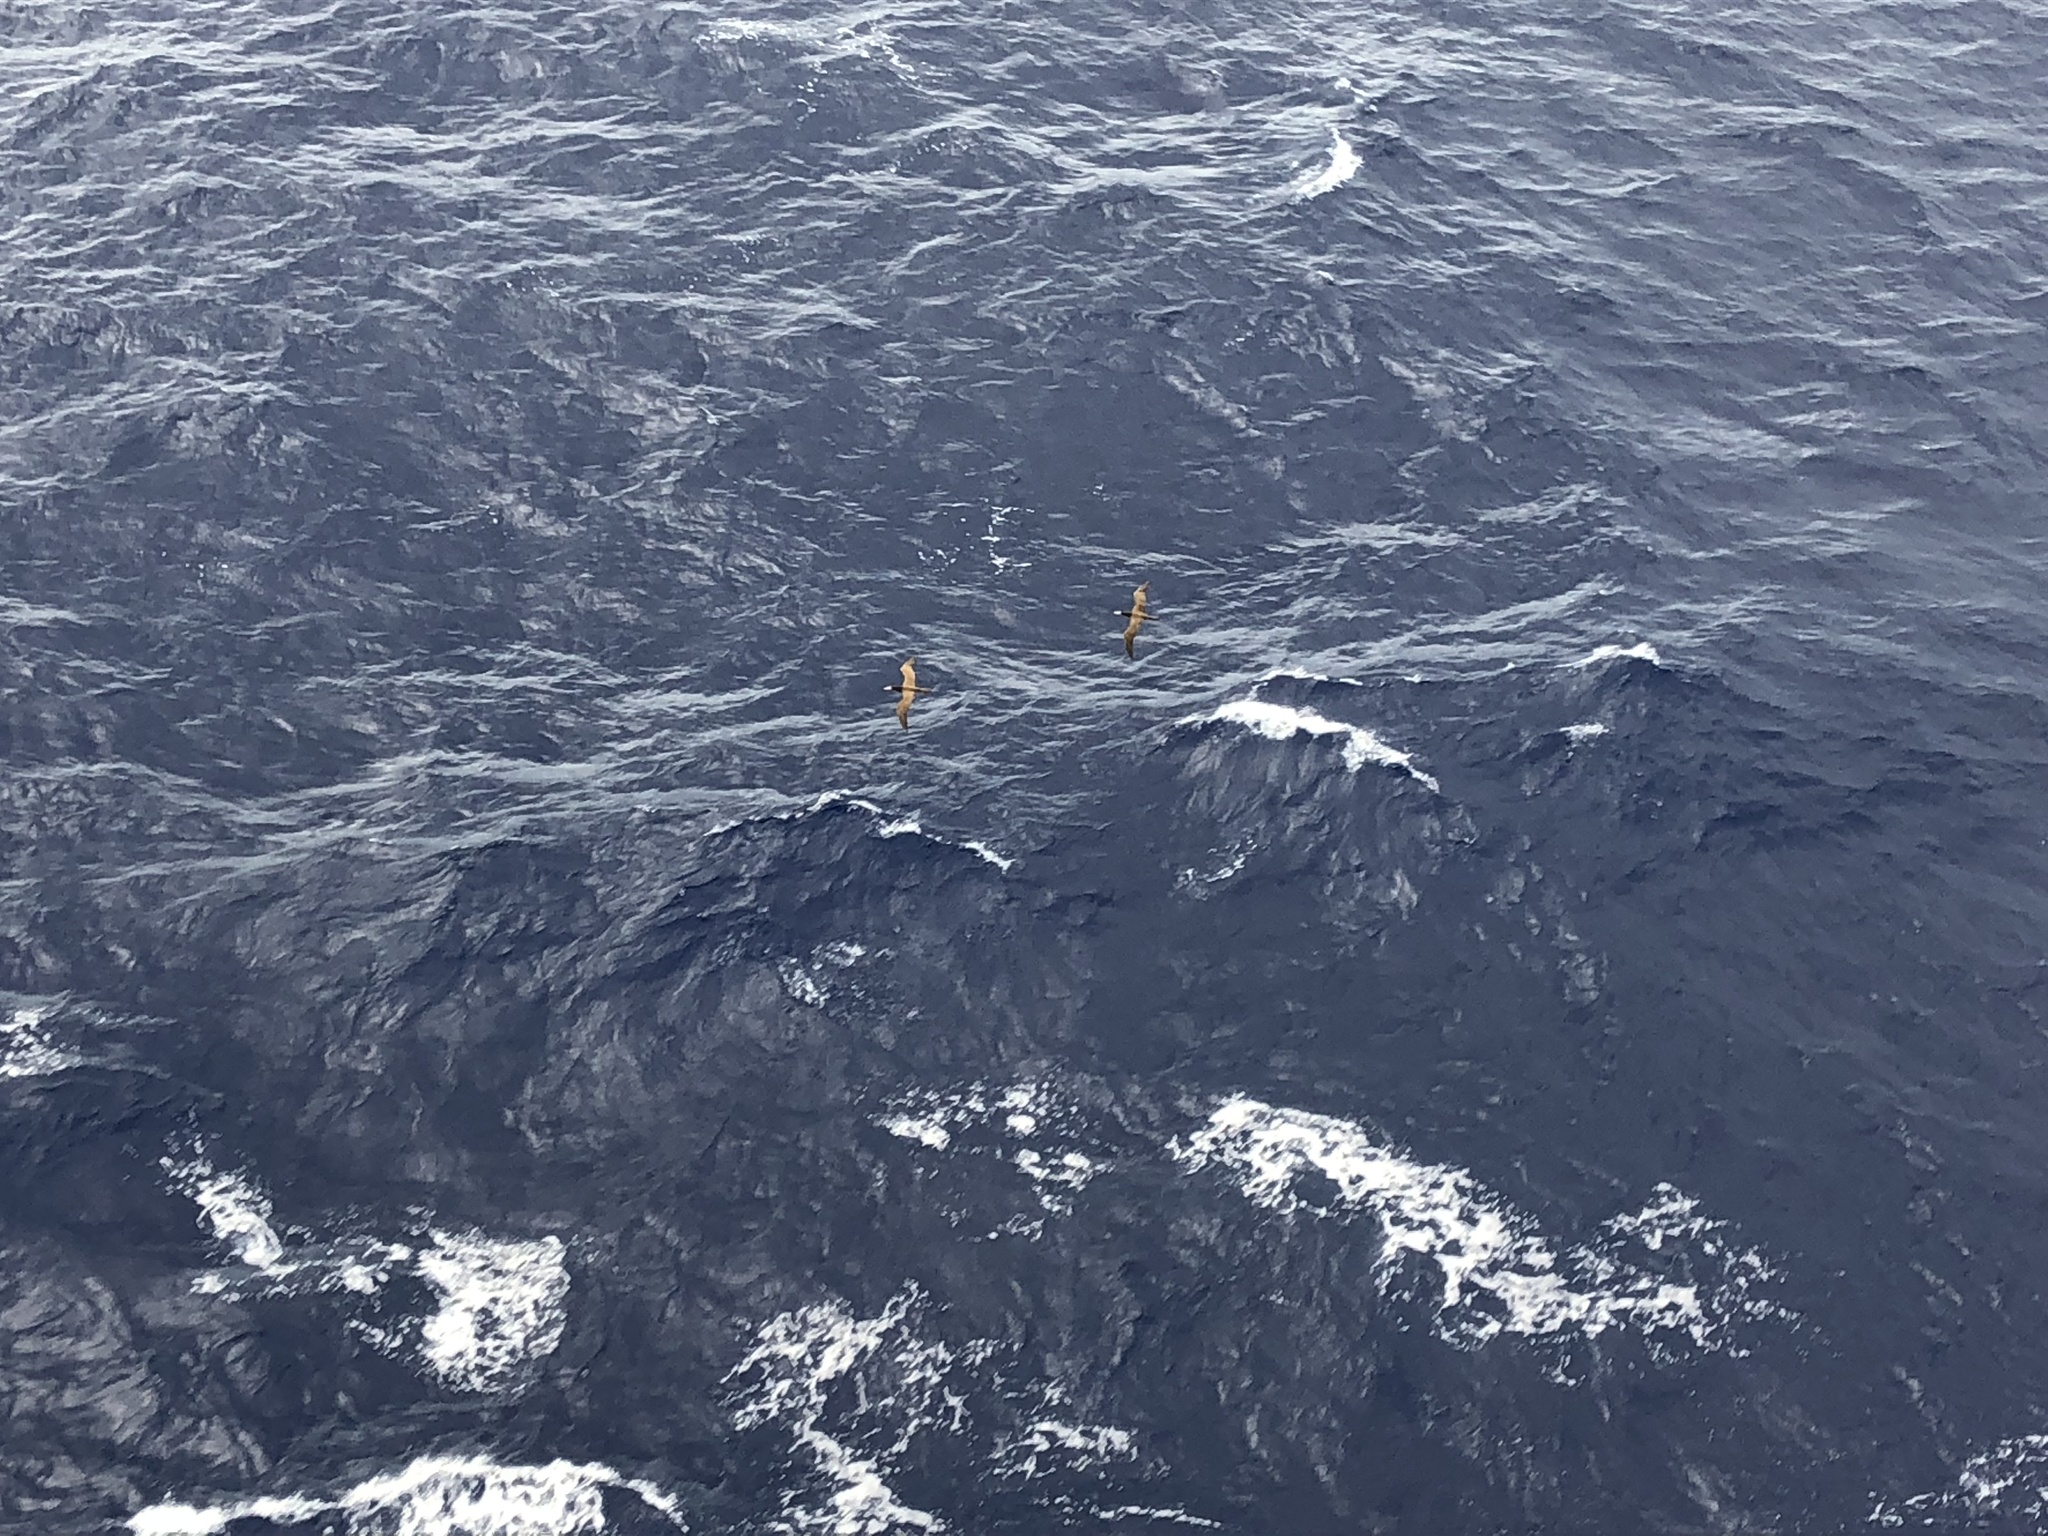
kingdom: Animalia
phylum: Chordata
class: Aves
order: Suliformes
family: Sulidae
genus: Sula
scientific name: Sula leucogaster
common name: Brown booby
